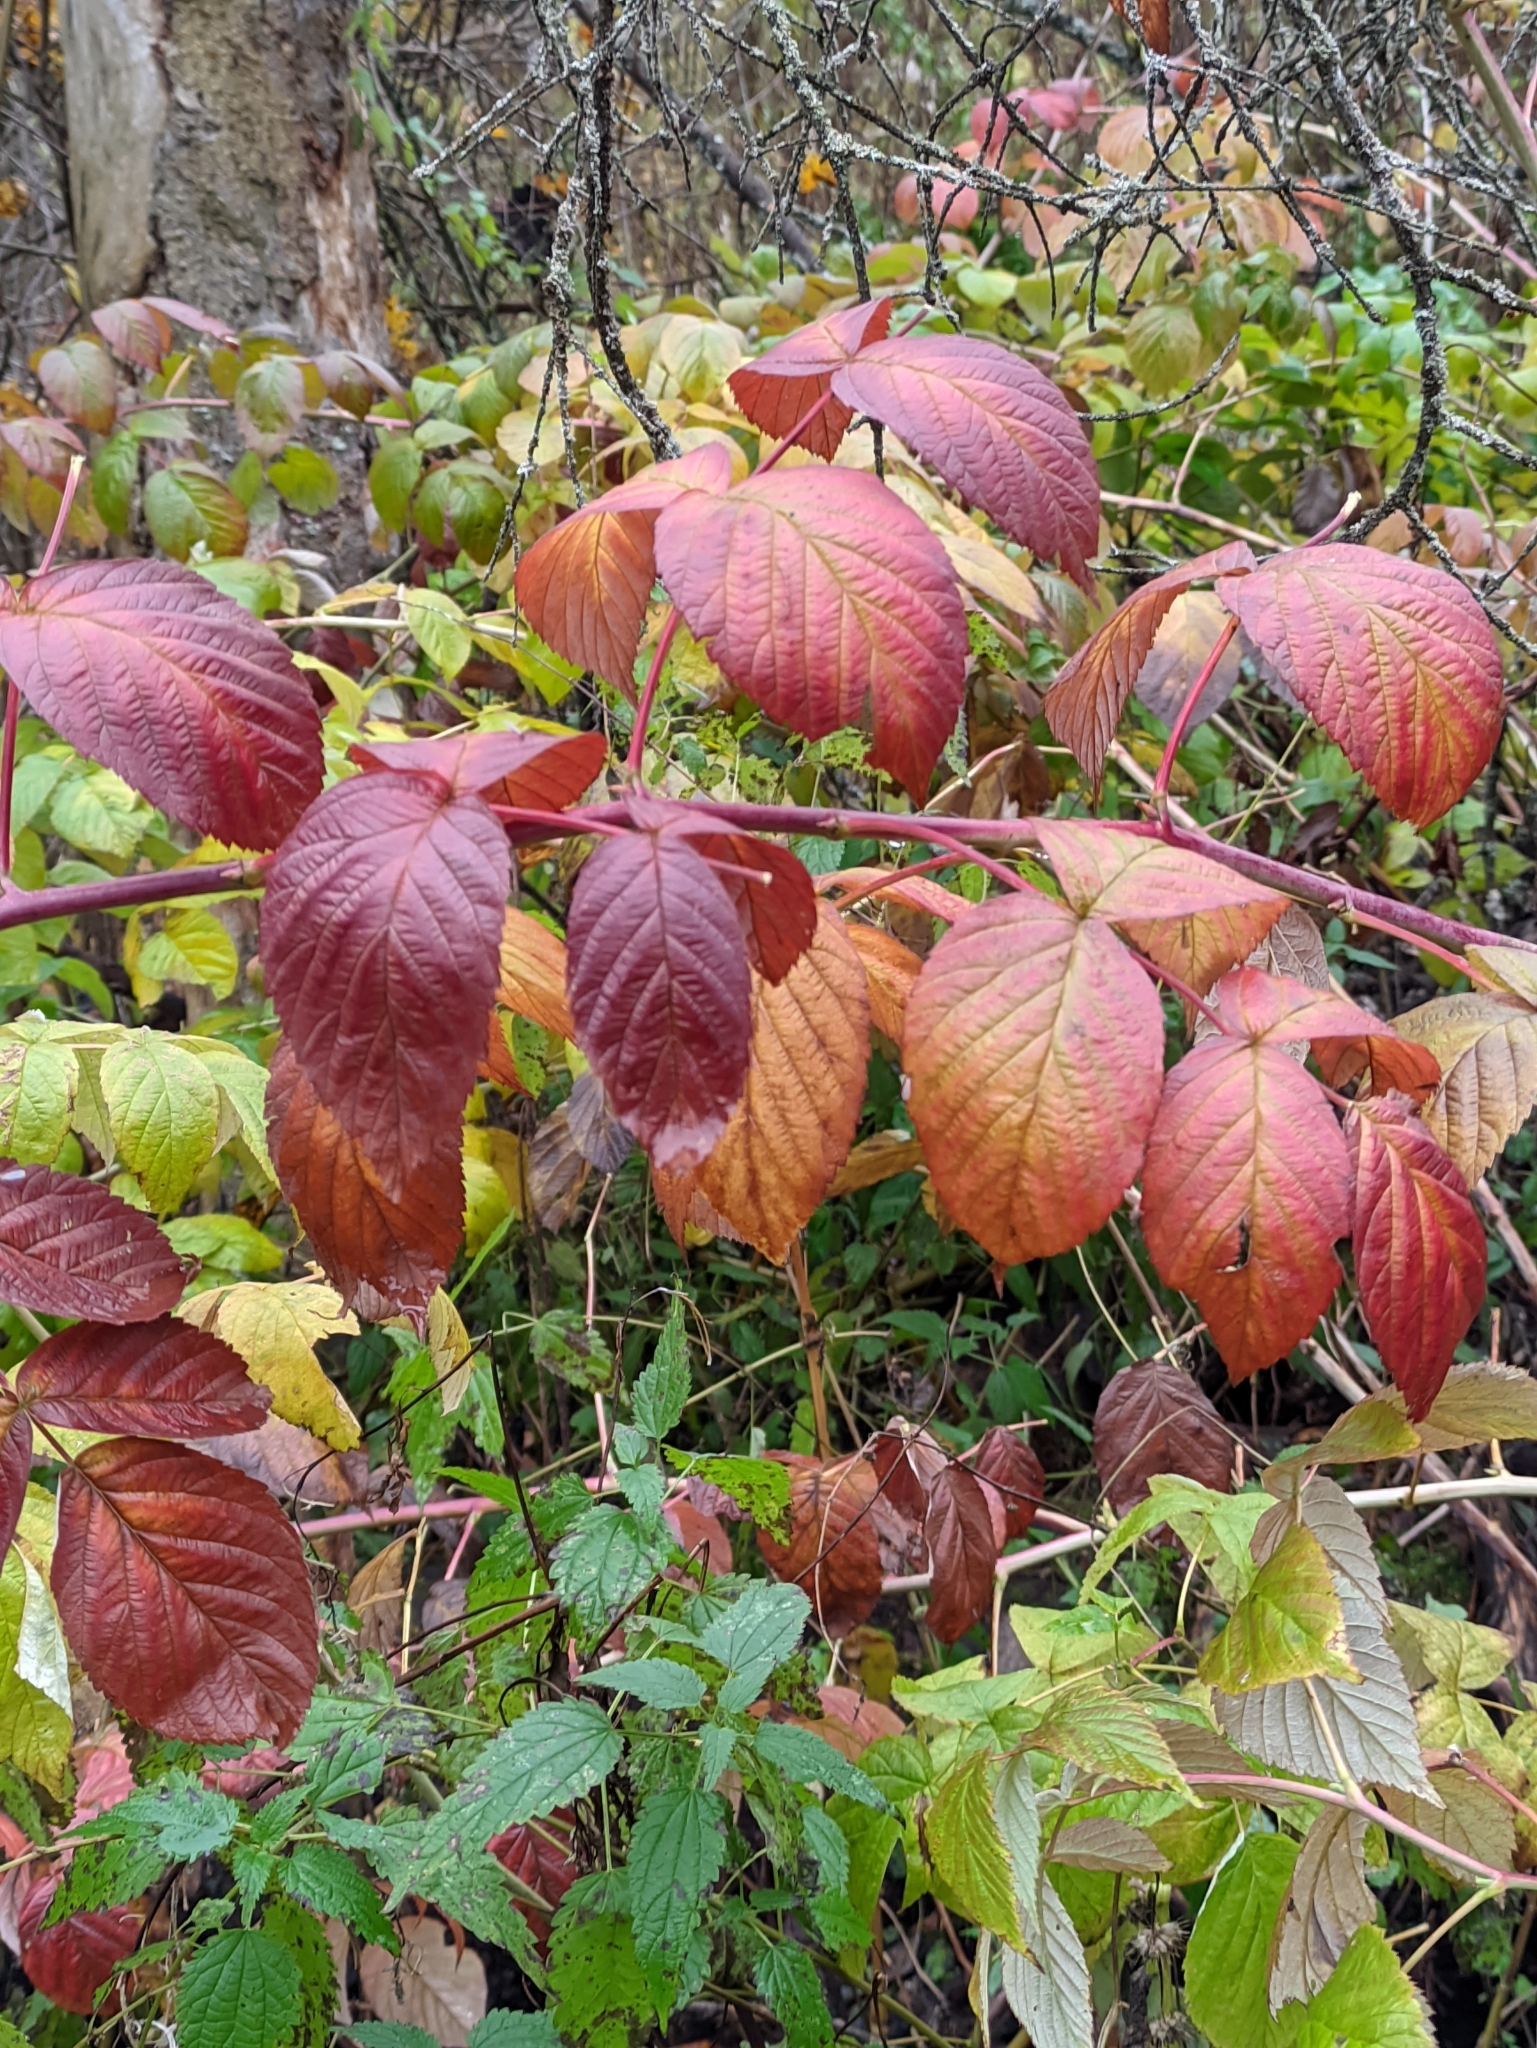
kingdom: Plantae
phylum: Tracheophyta
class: Magnoliopsida
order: Rosales
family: Rosaceae
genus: Rubus
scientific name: Rubus idaeus
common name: Raspberry
